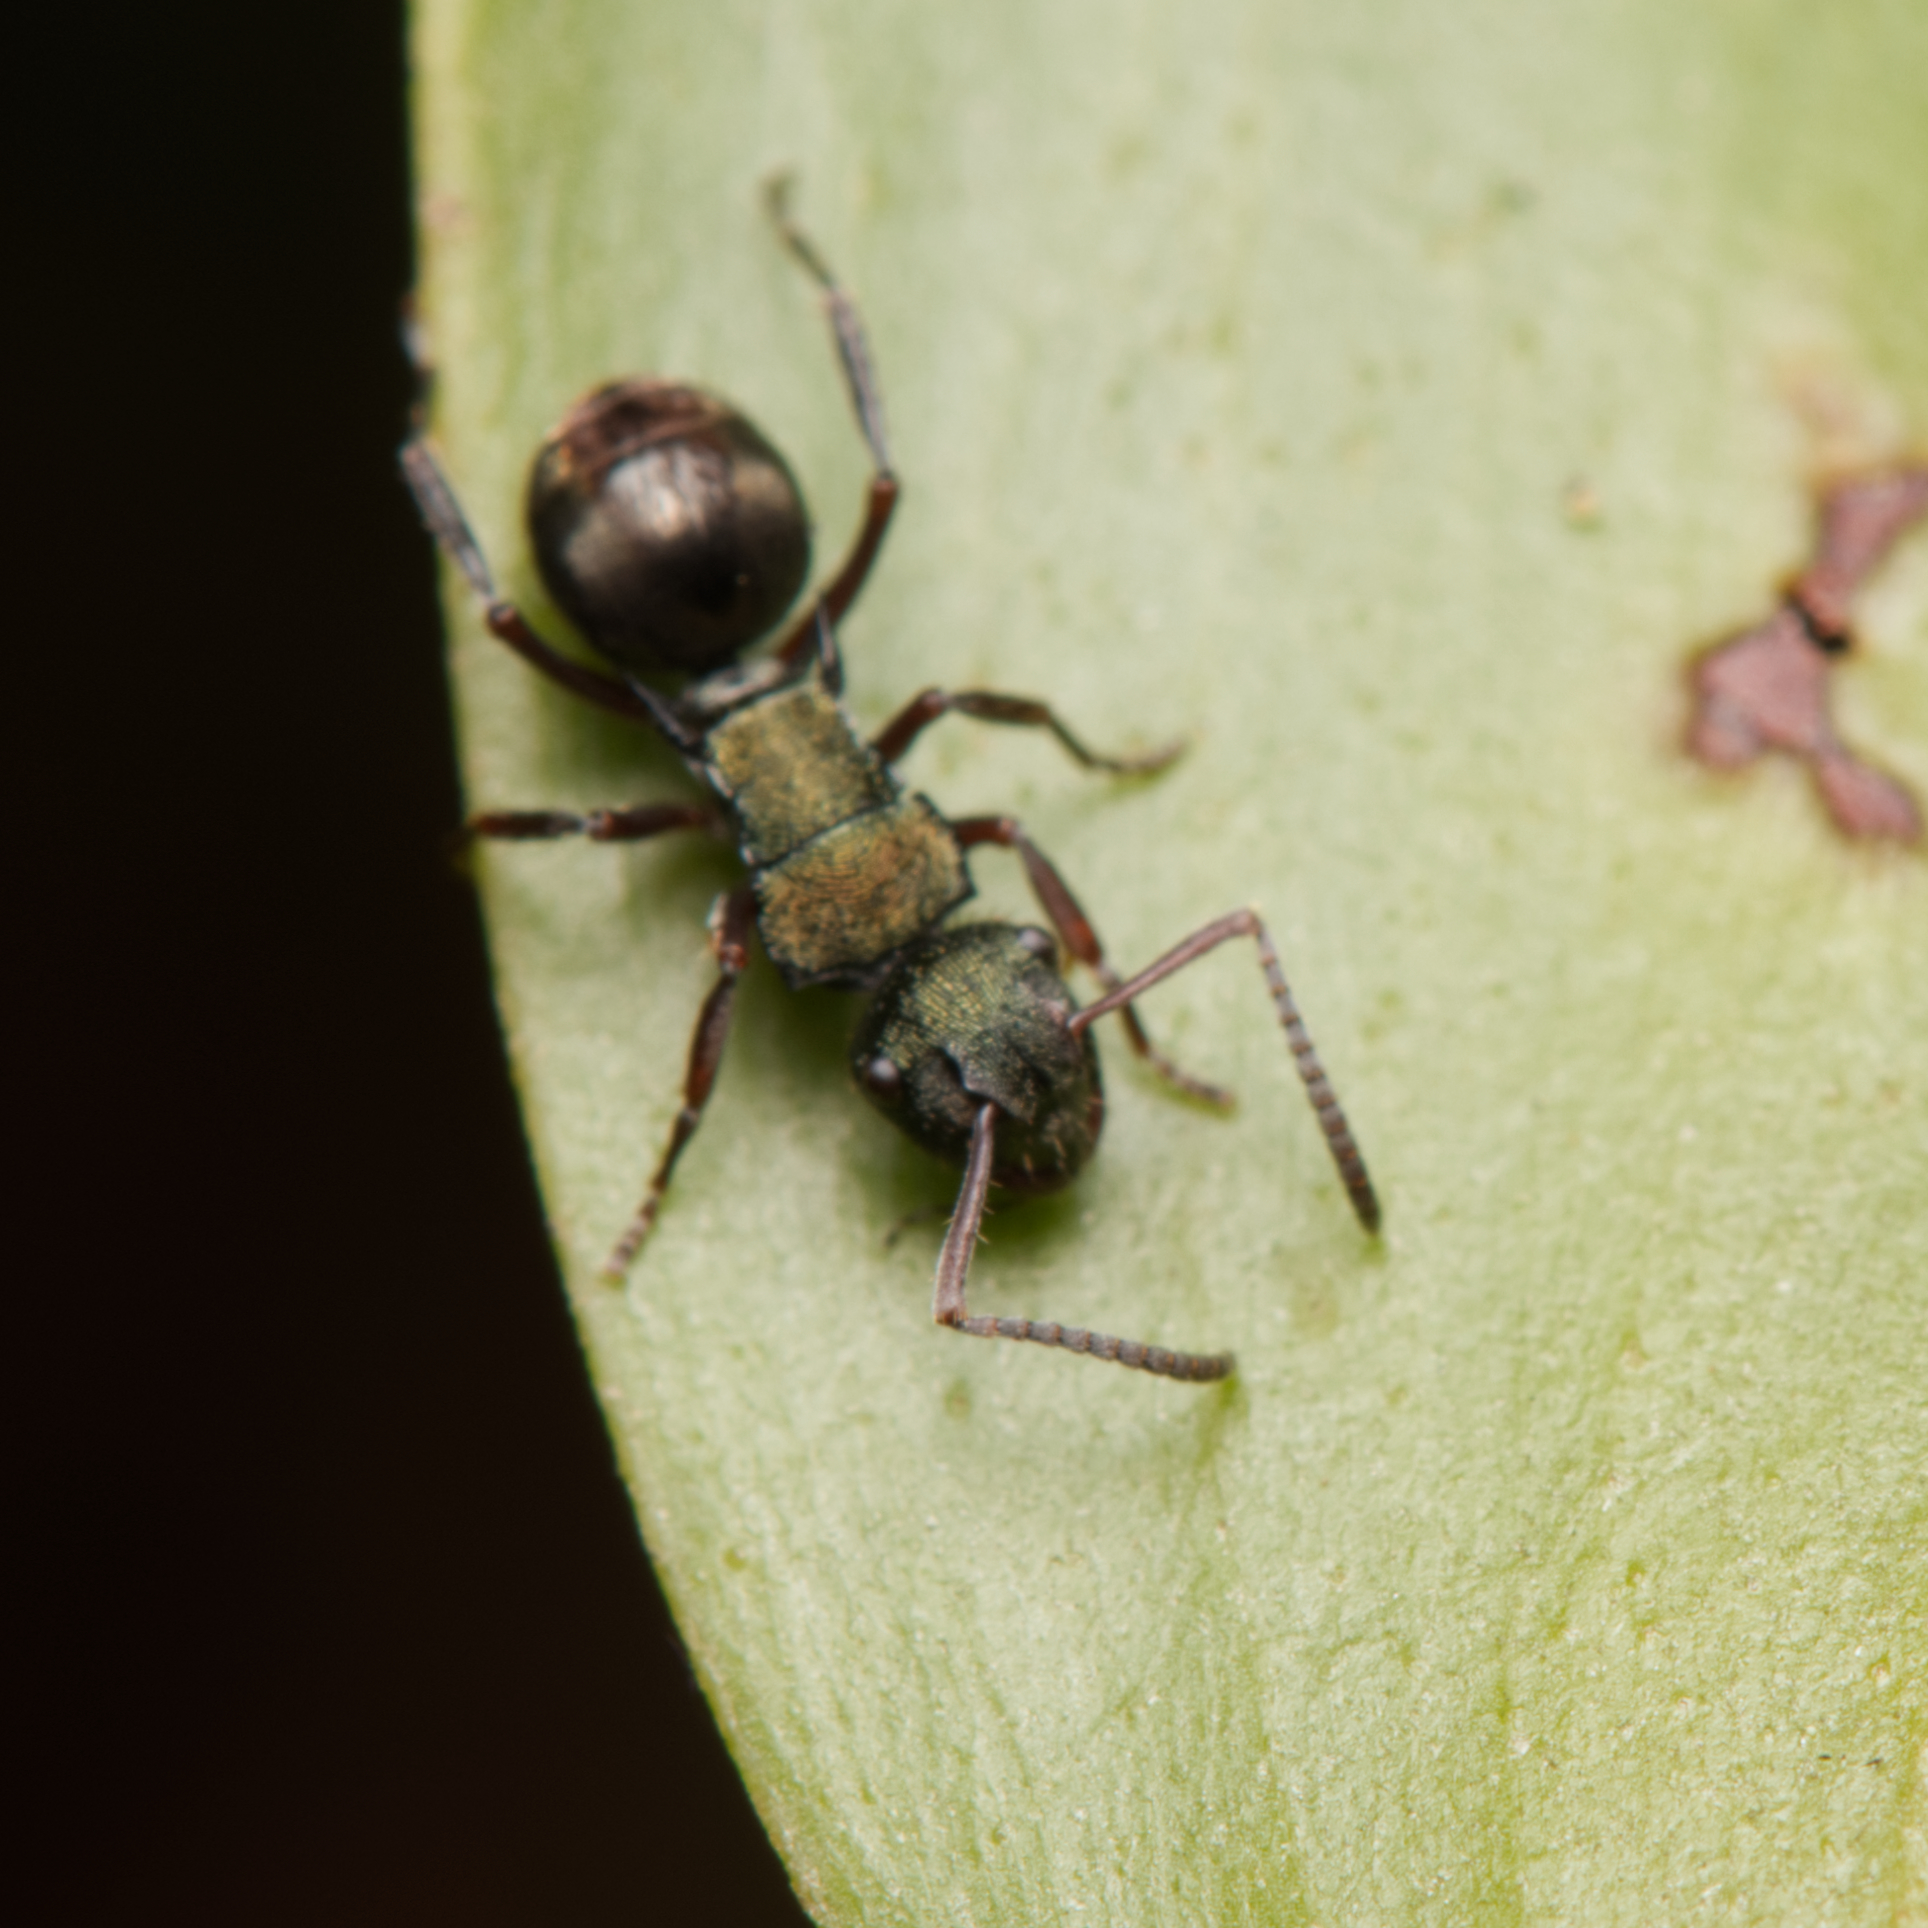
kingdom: Animalia
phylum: Arthropoda
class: Insecta
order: Hymenoptera
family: Formicidae
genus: Polyrhachis
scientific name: Polyrhachis hookeri
